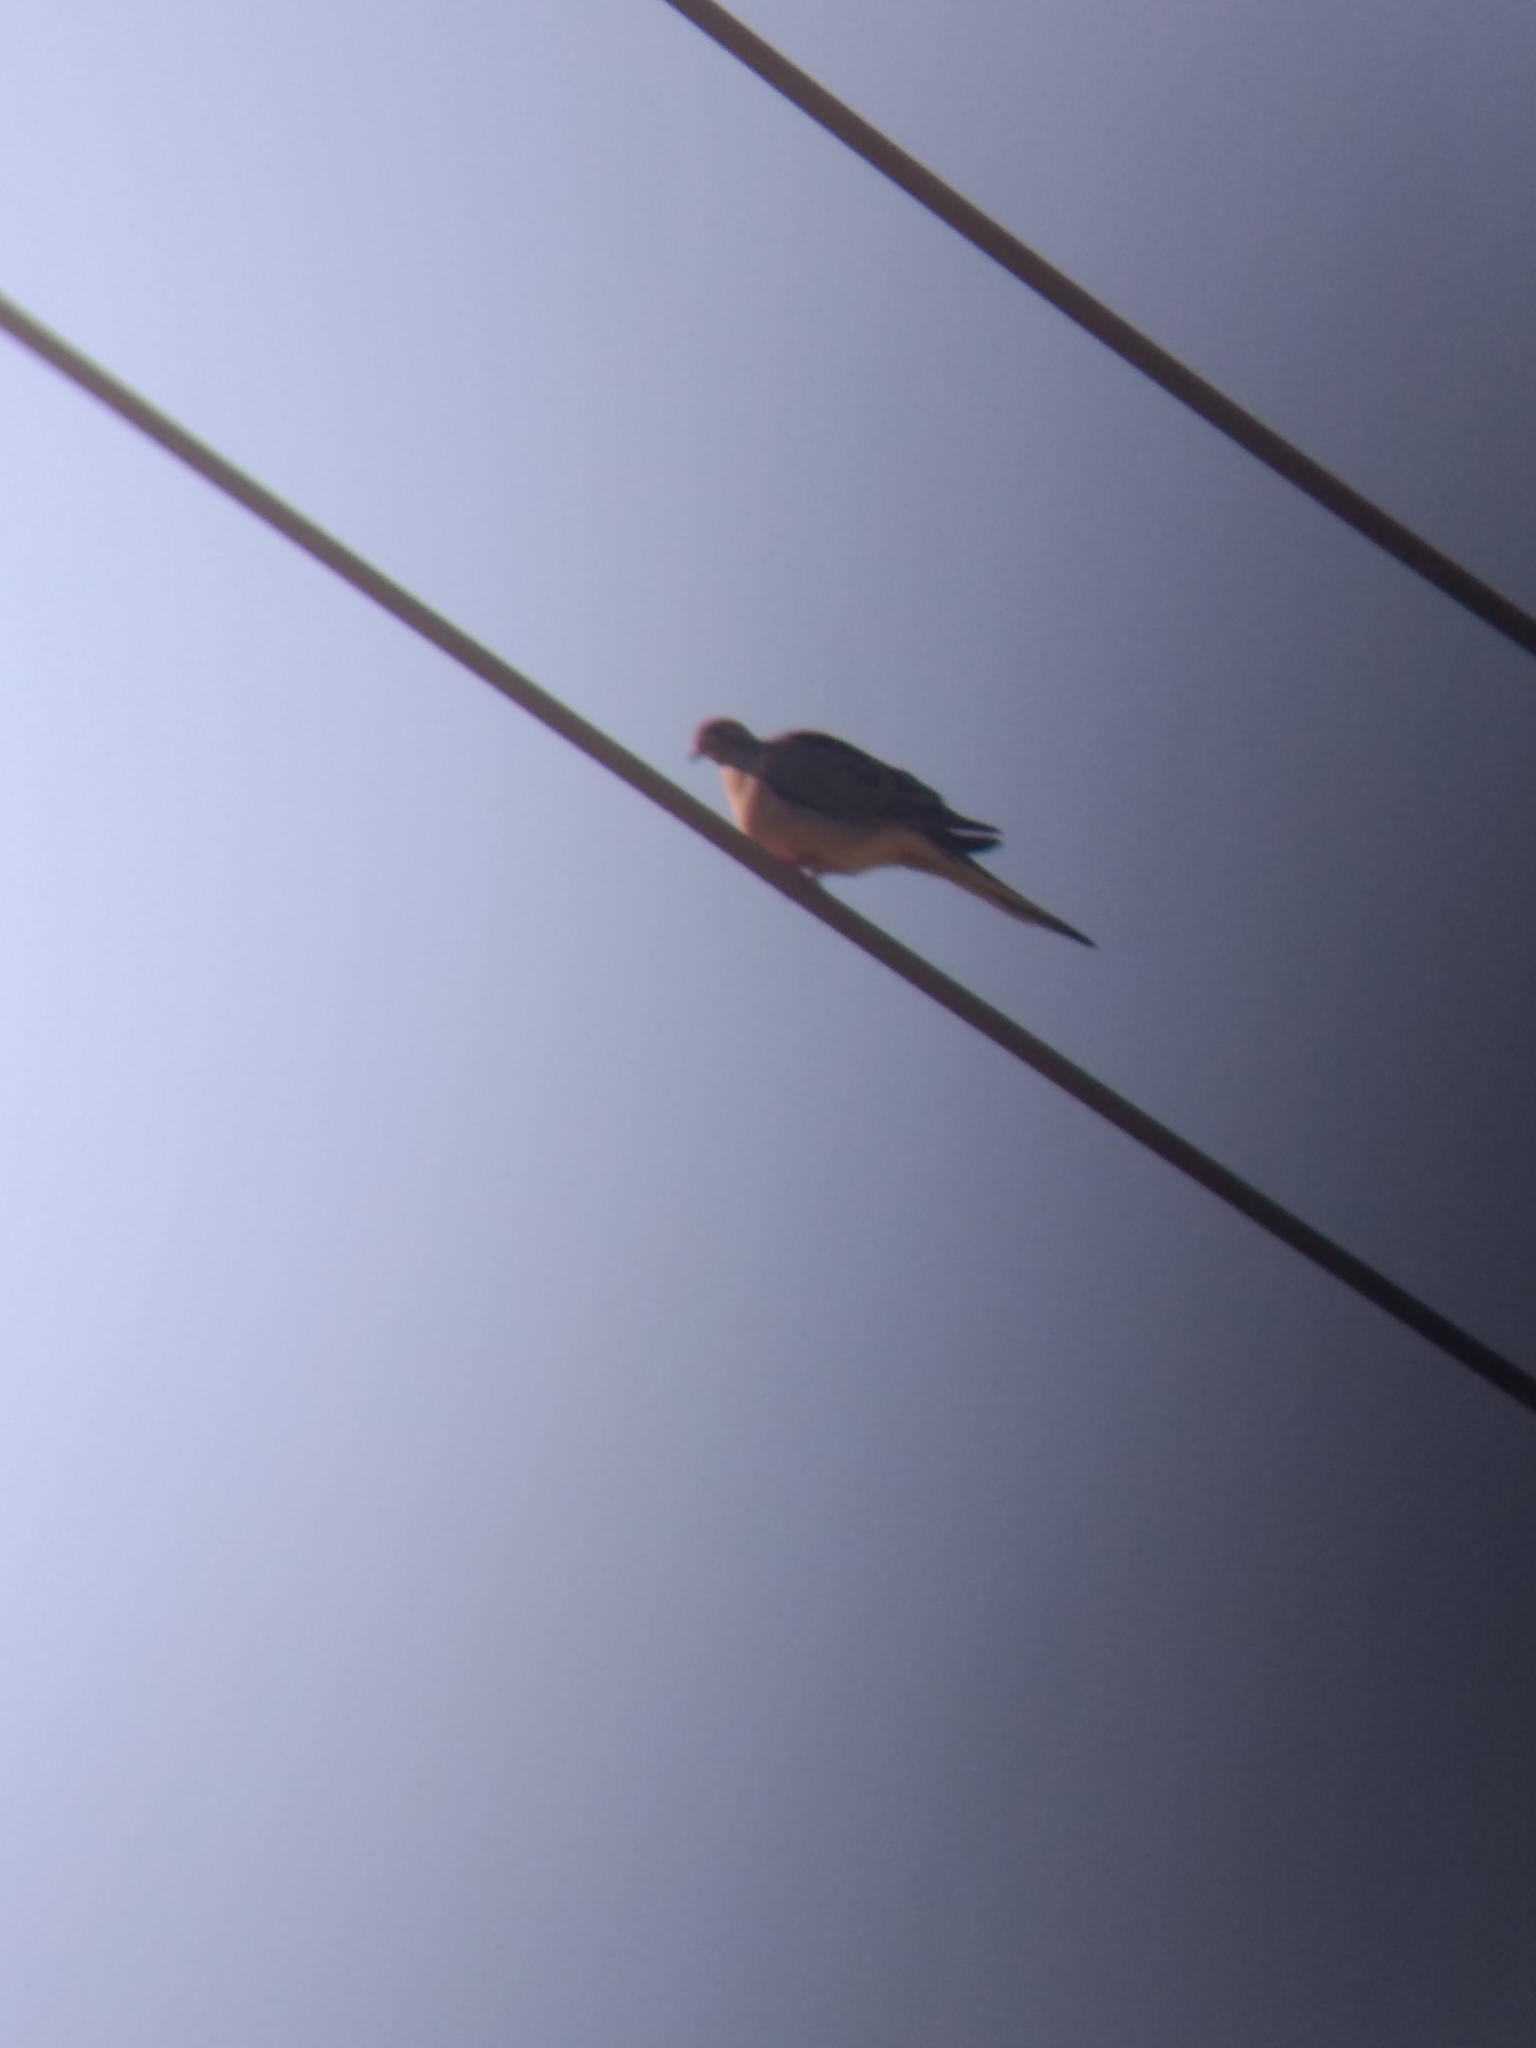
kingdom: Animalia
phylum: Chordata
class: Aves
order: Columbiformes
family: Columbidae
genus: Zenaida
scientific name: Zenaida macroura
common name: Mourning dove
